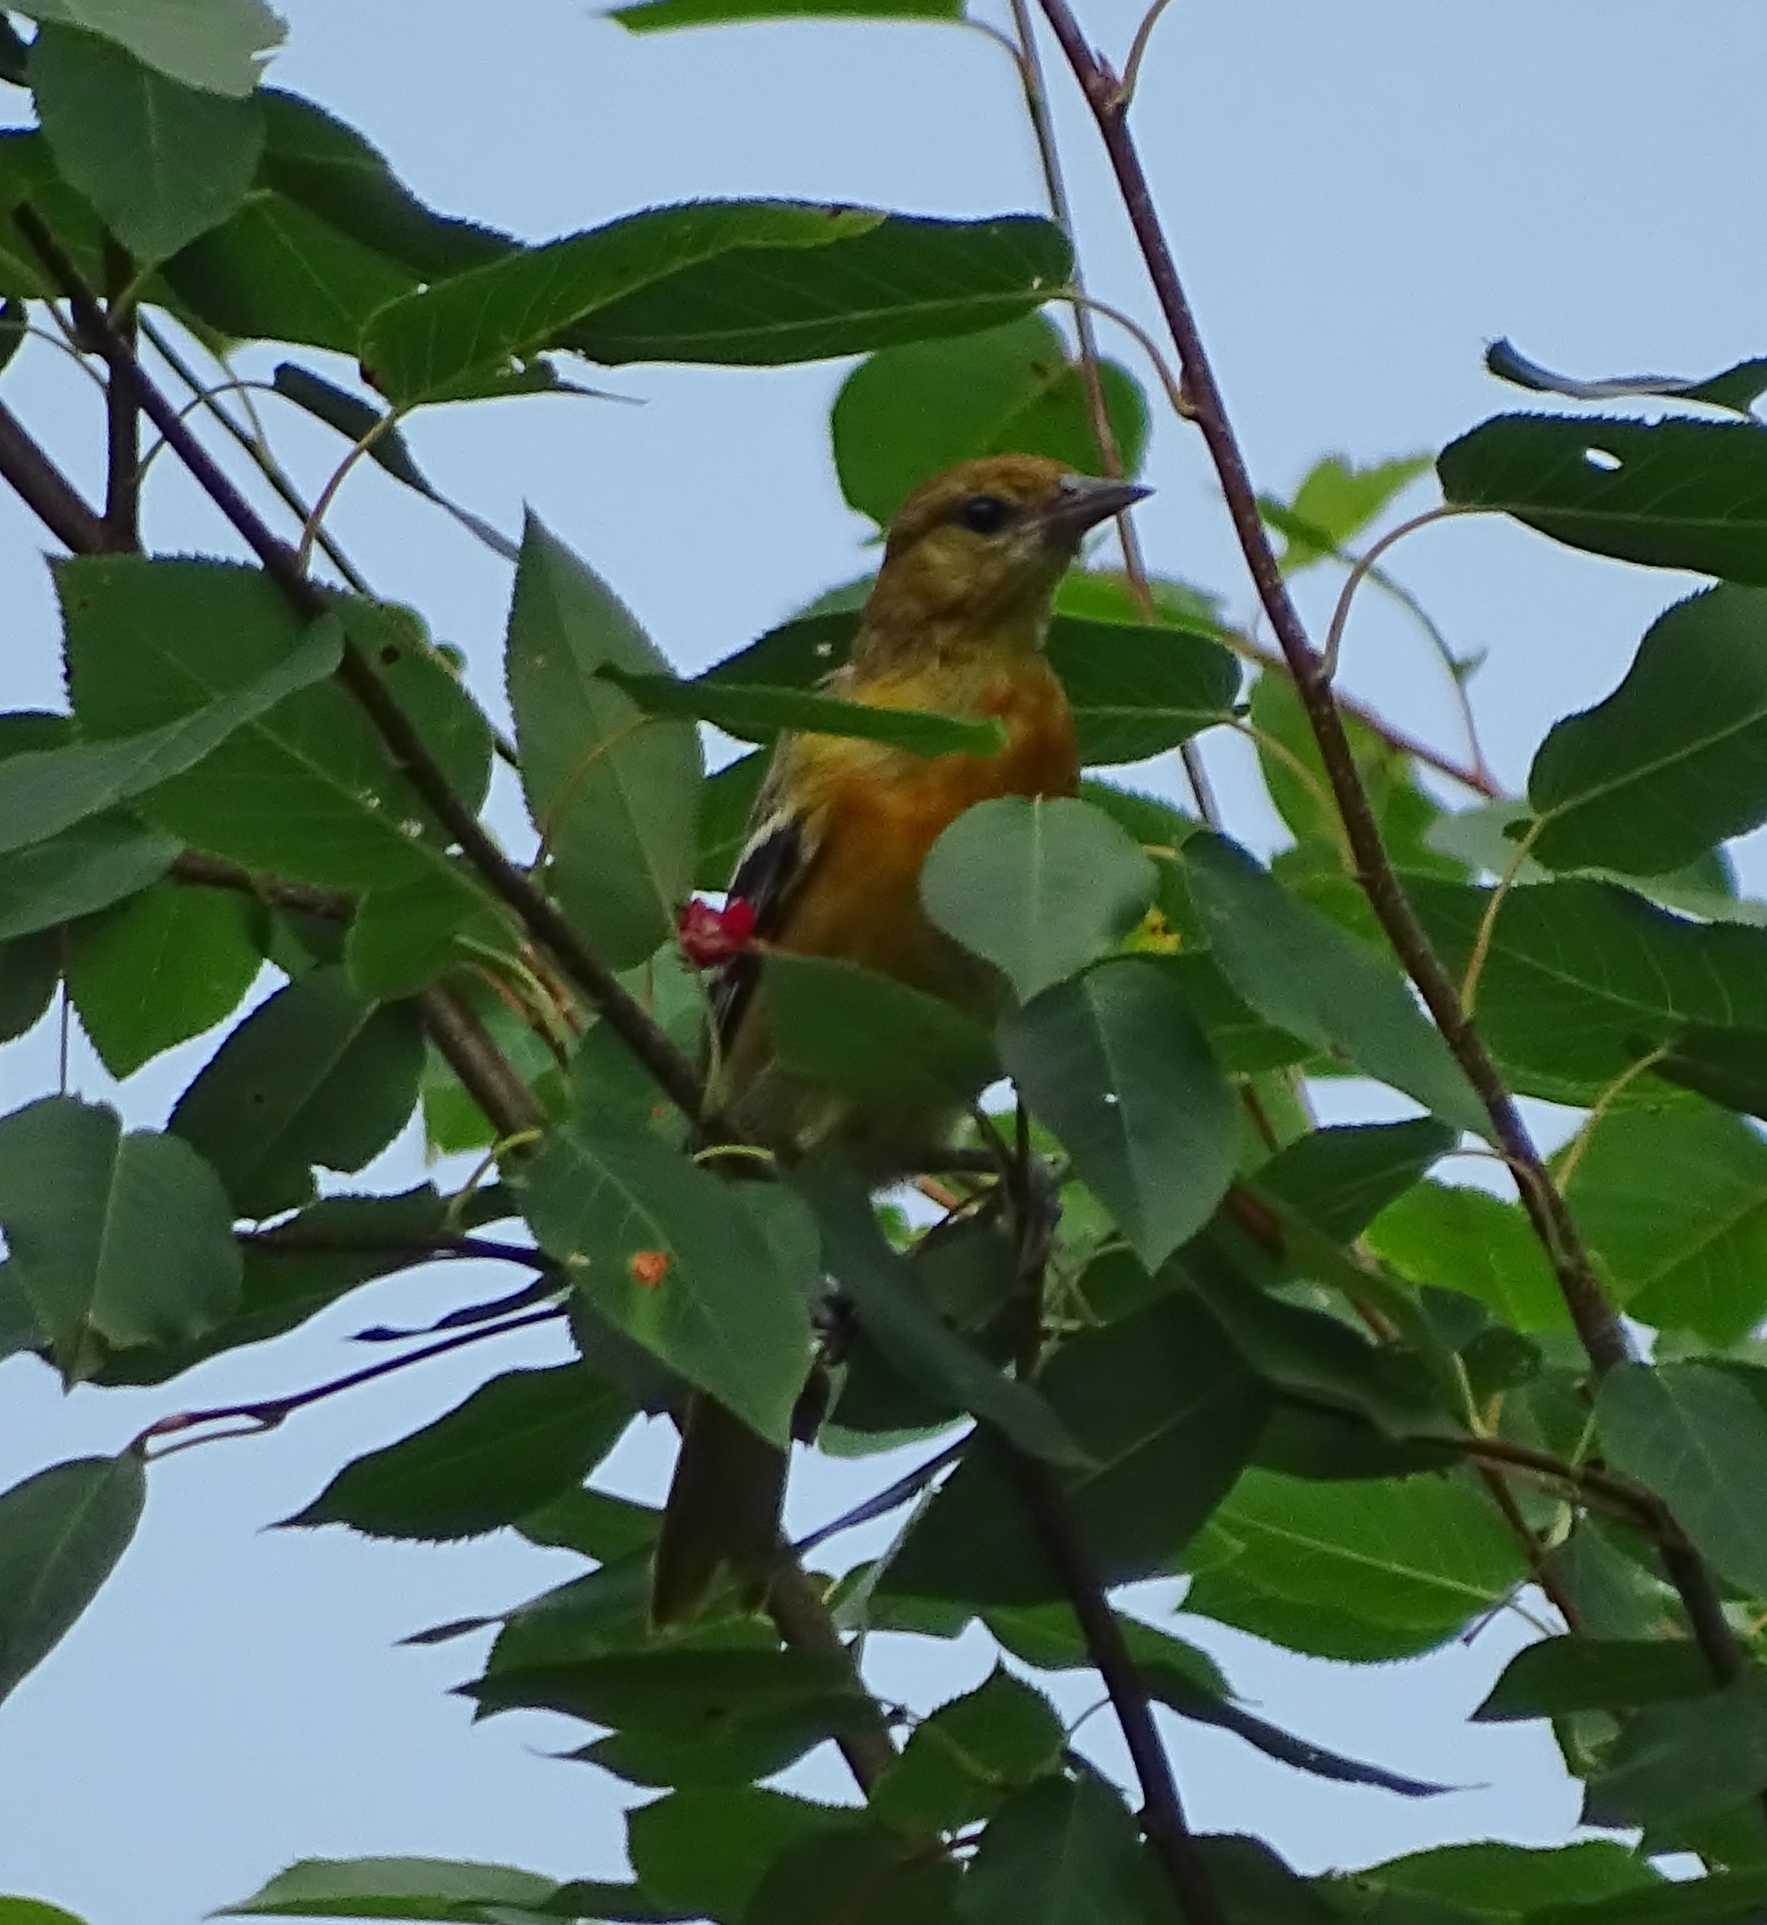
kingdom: Animalia
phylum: Chordata
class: Aves
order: Passeriformes
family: Icteridae
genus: Icterus
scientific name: Icterus galbula
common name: Baltimore oriole
